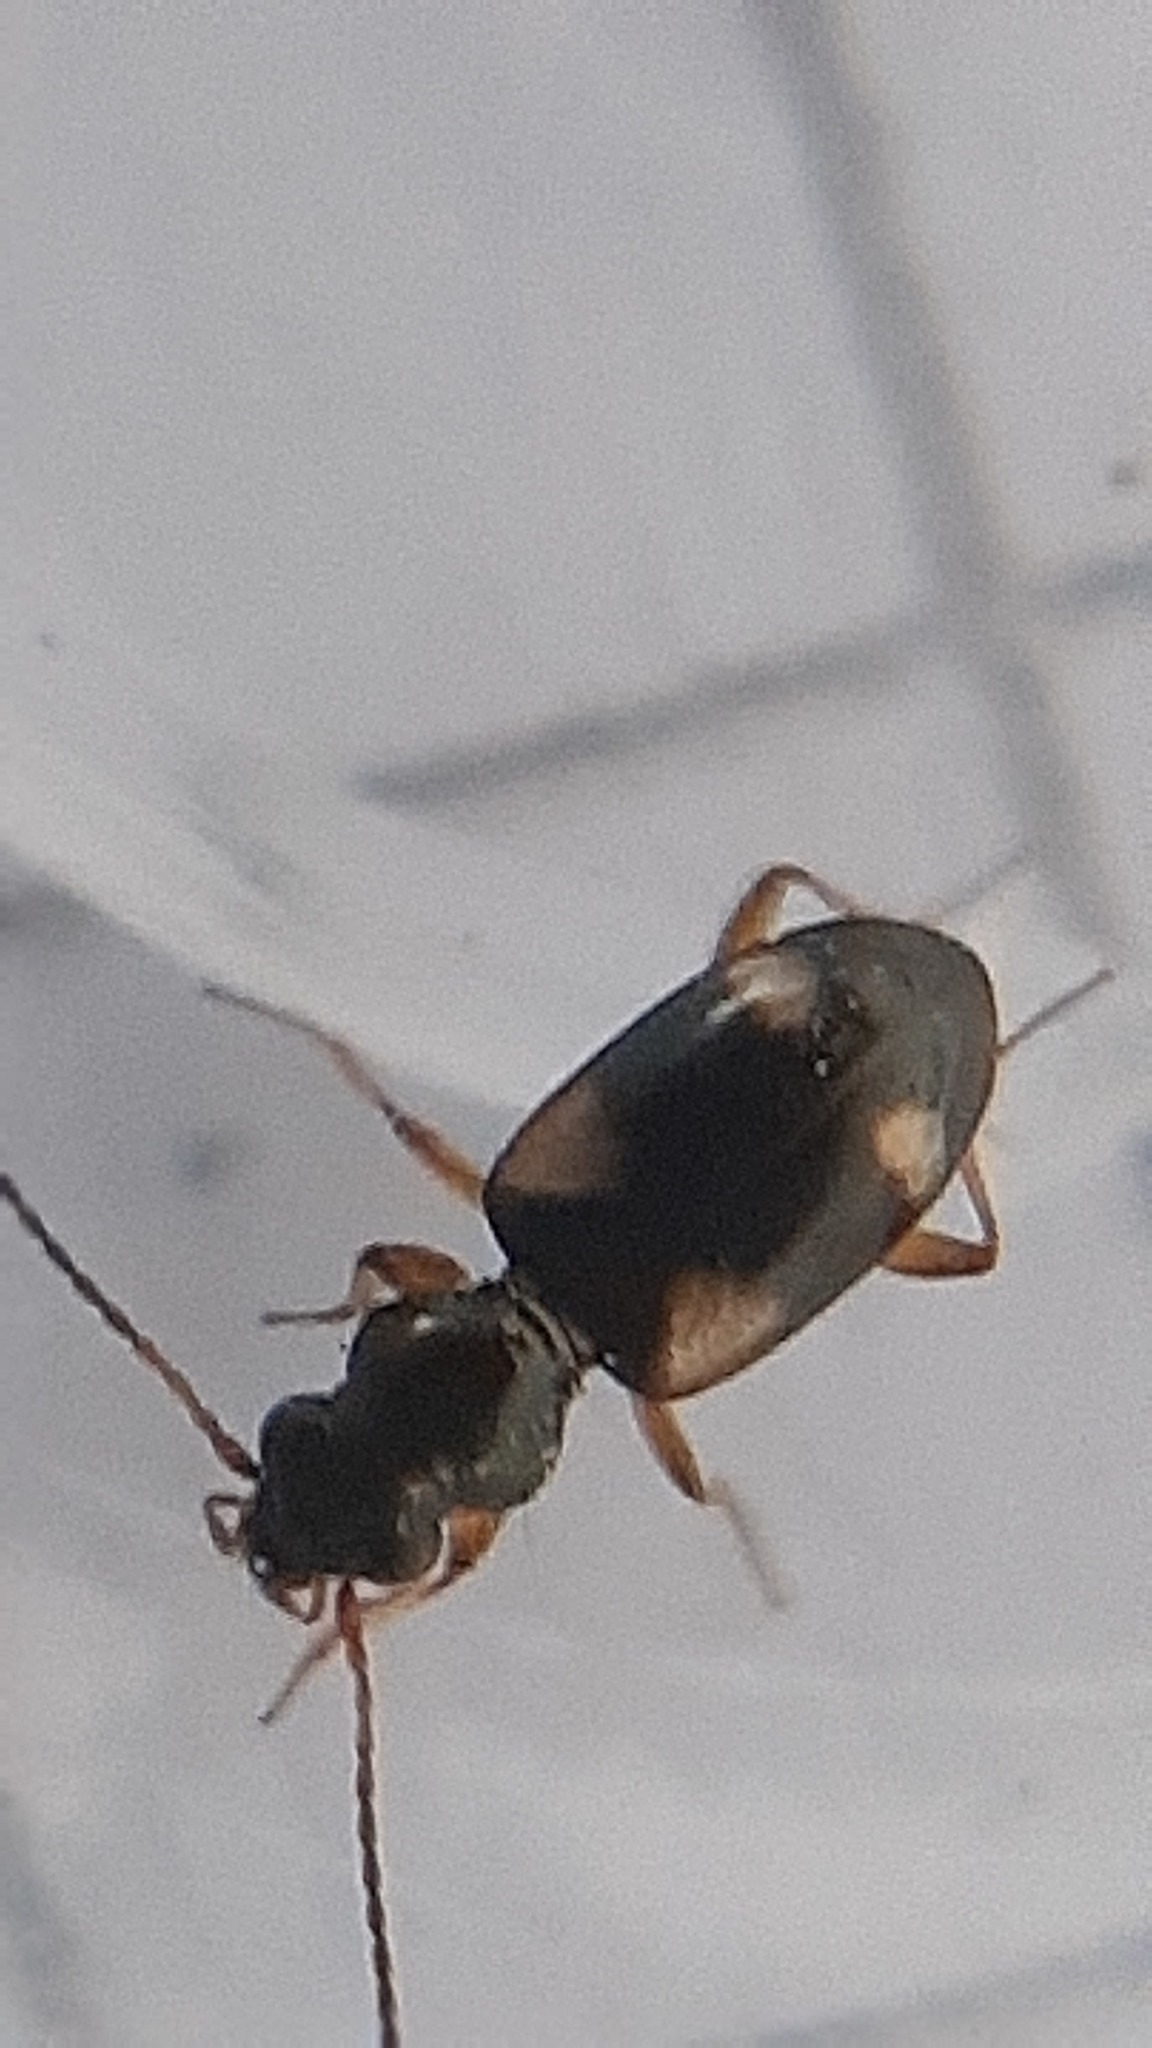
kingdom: Animalia
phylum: Arthropoda
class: Insecta
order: Coleoptera
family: Carabidae
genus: Bembidion
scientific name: Bembidion quadrimaculatum
